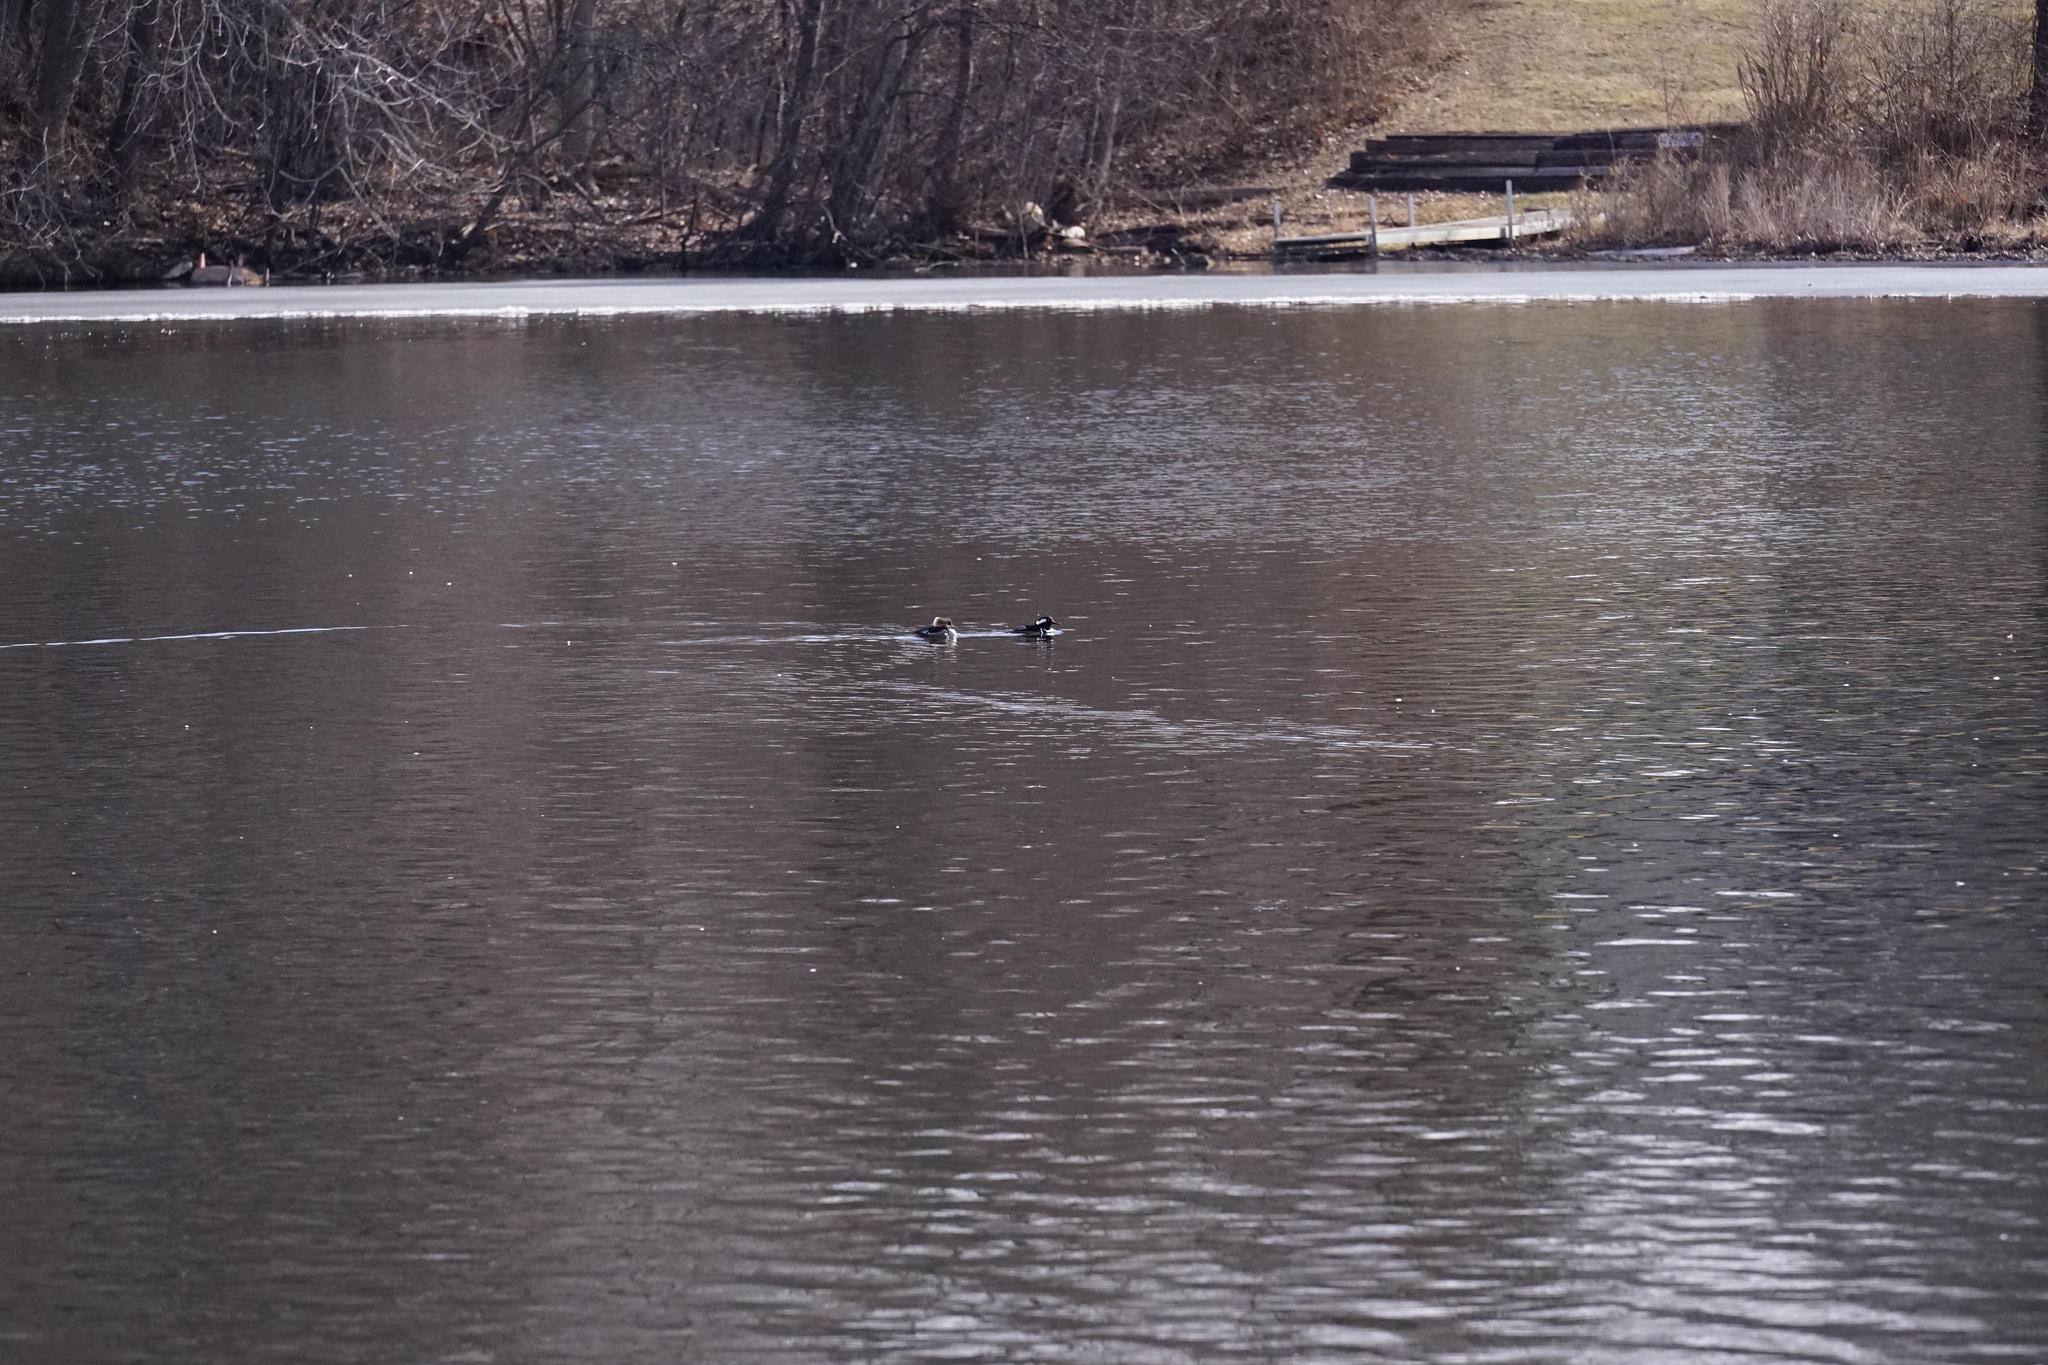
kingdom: Animalia
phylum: Chordata
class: Aves
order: Anseriformes
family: Anatidae
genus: Lophodytes
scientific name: Lophodytes cucullatus
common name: Hooded merganser
